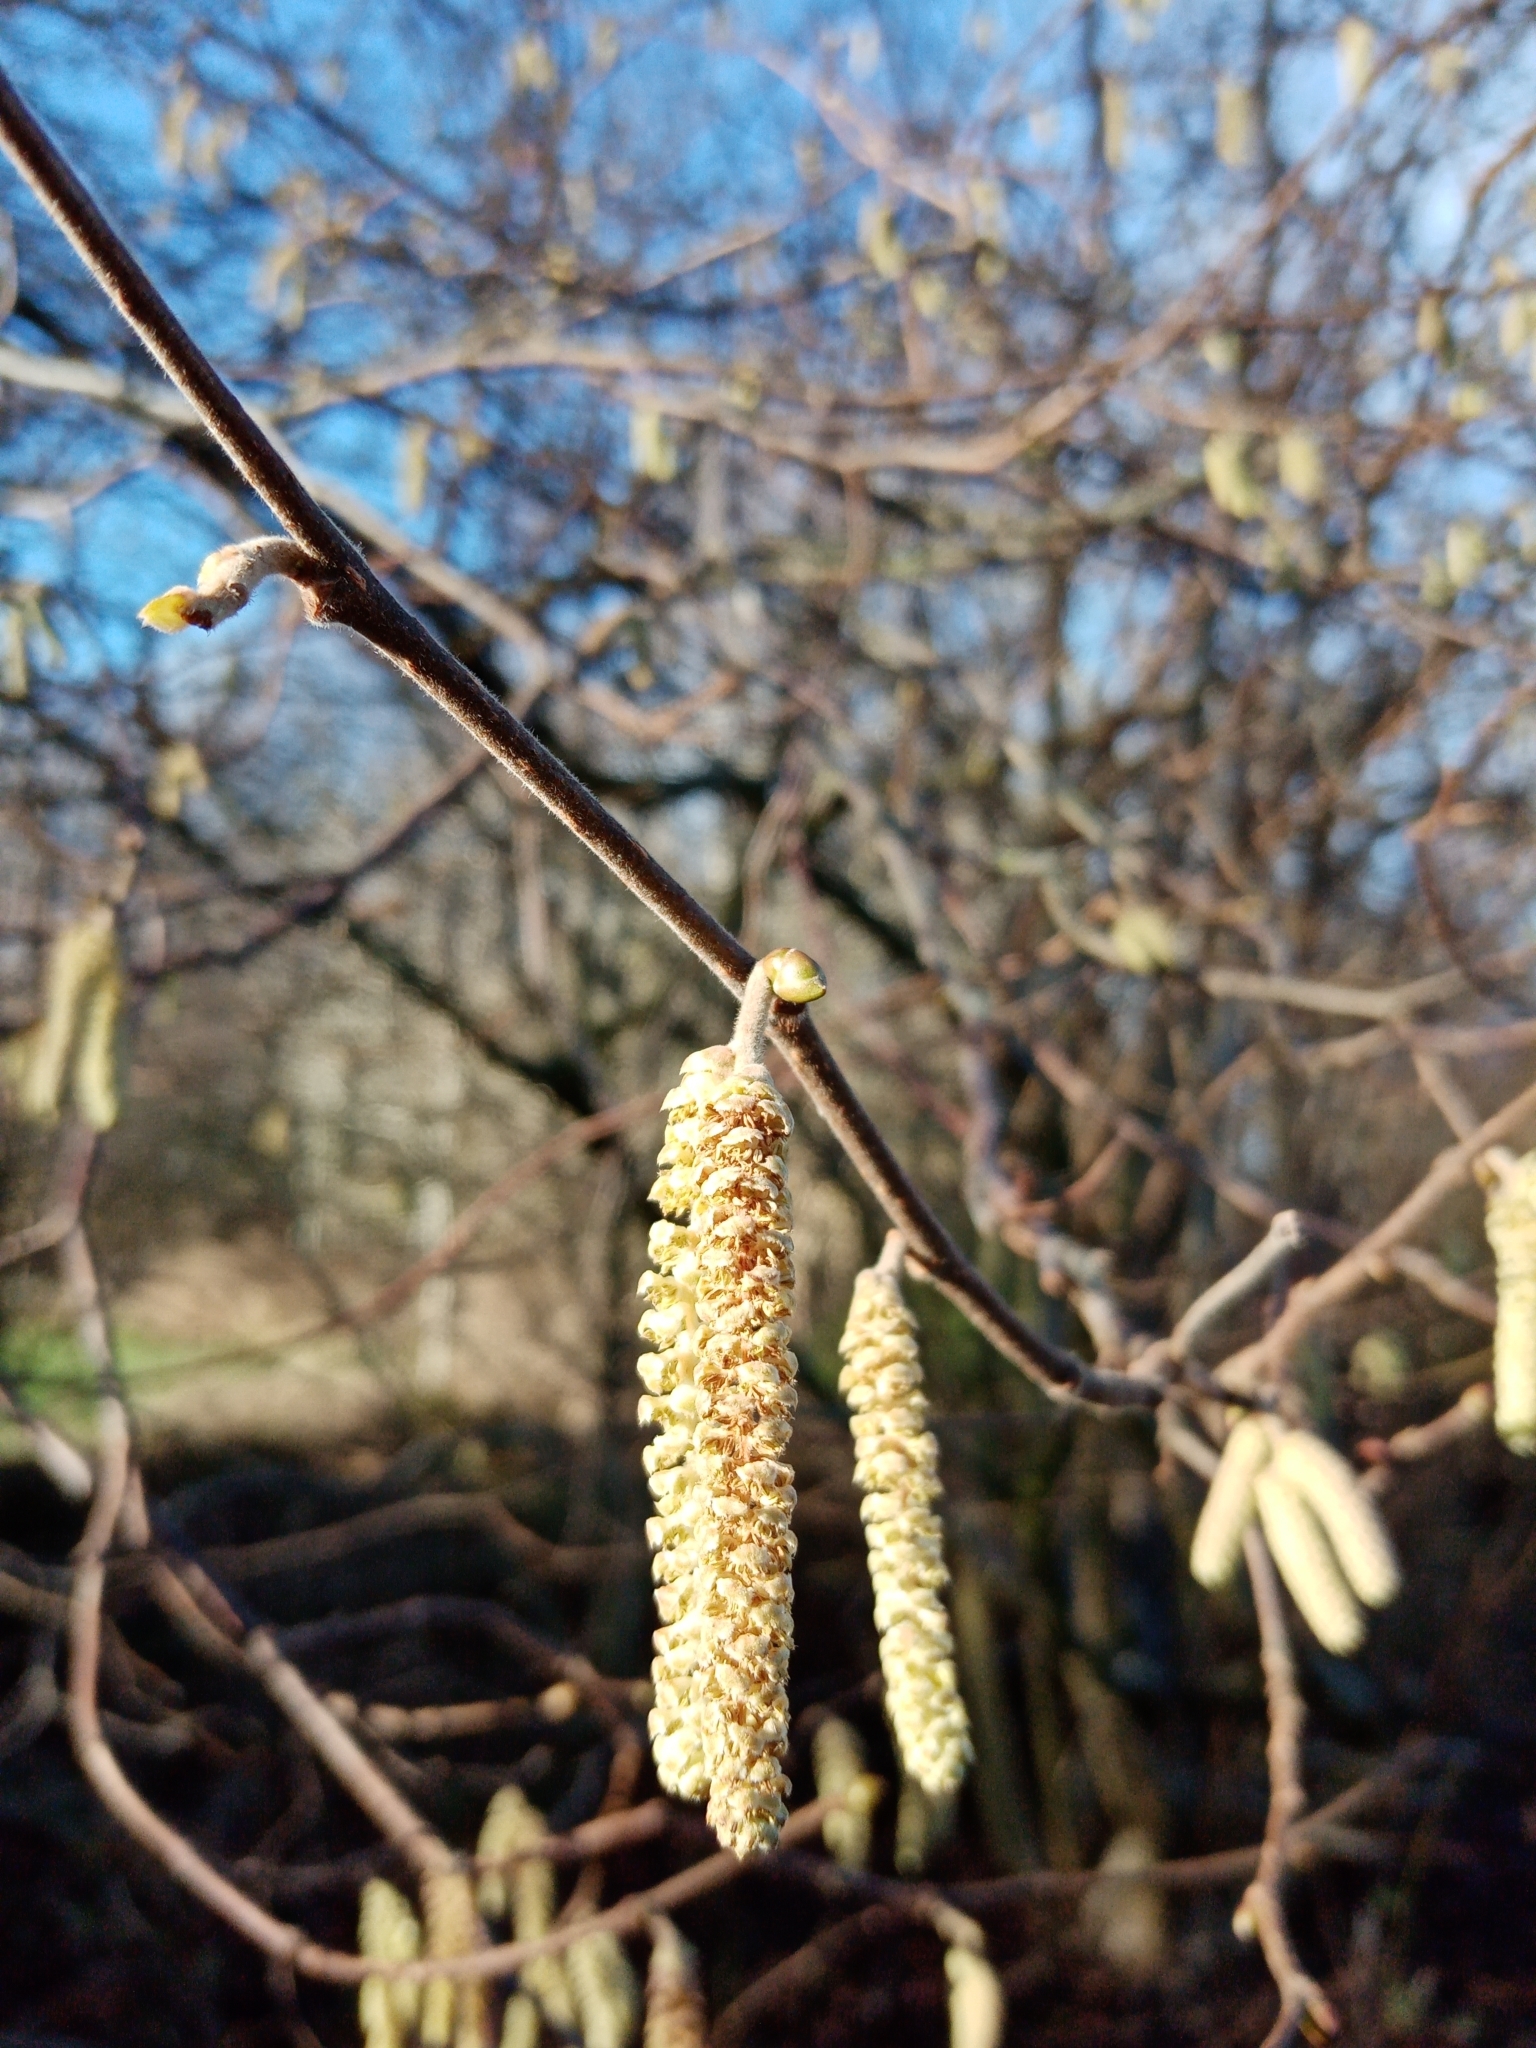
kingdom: Plantae
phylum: Tracheophyta
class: Magnoliopsida
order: Fagales
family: Betulaceae
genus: Corylus
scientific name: Corylus avellana
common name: European hazel
